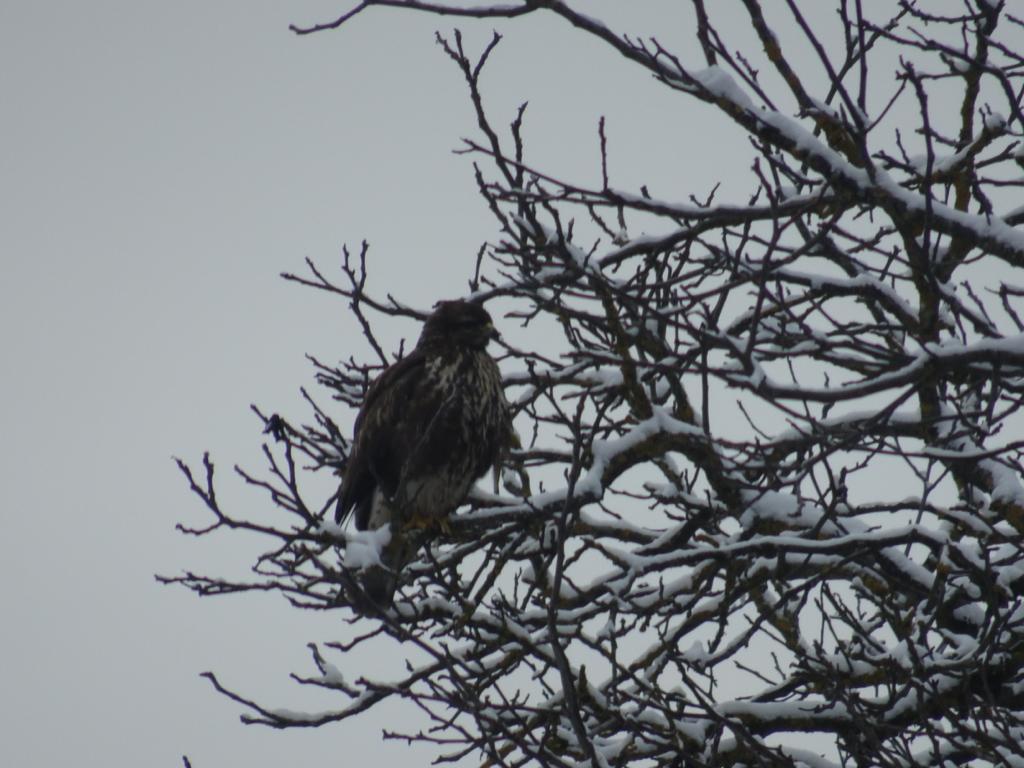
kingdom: Animalia
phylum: Chordata
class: Aves
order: Accipitriformes
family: Accipitridae
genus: Buteo
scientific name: Buteo buteo
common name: Common buzzard
